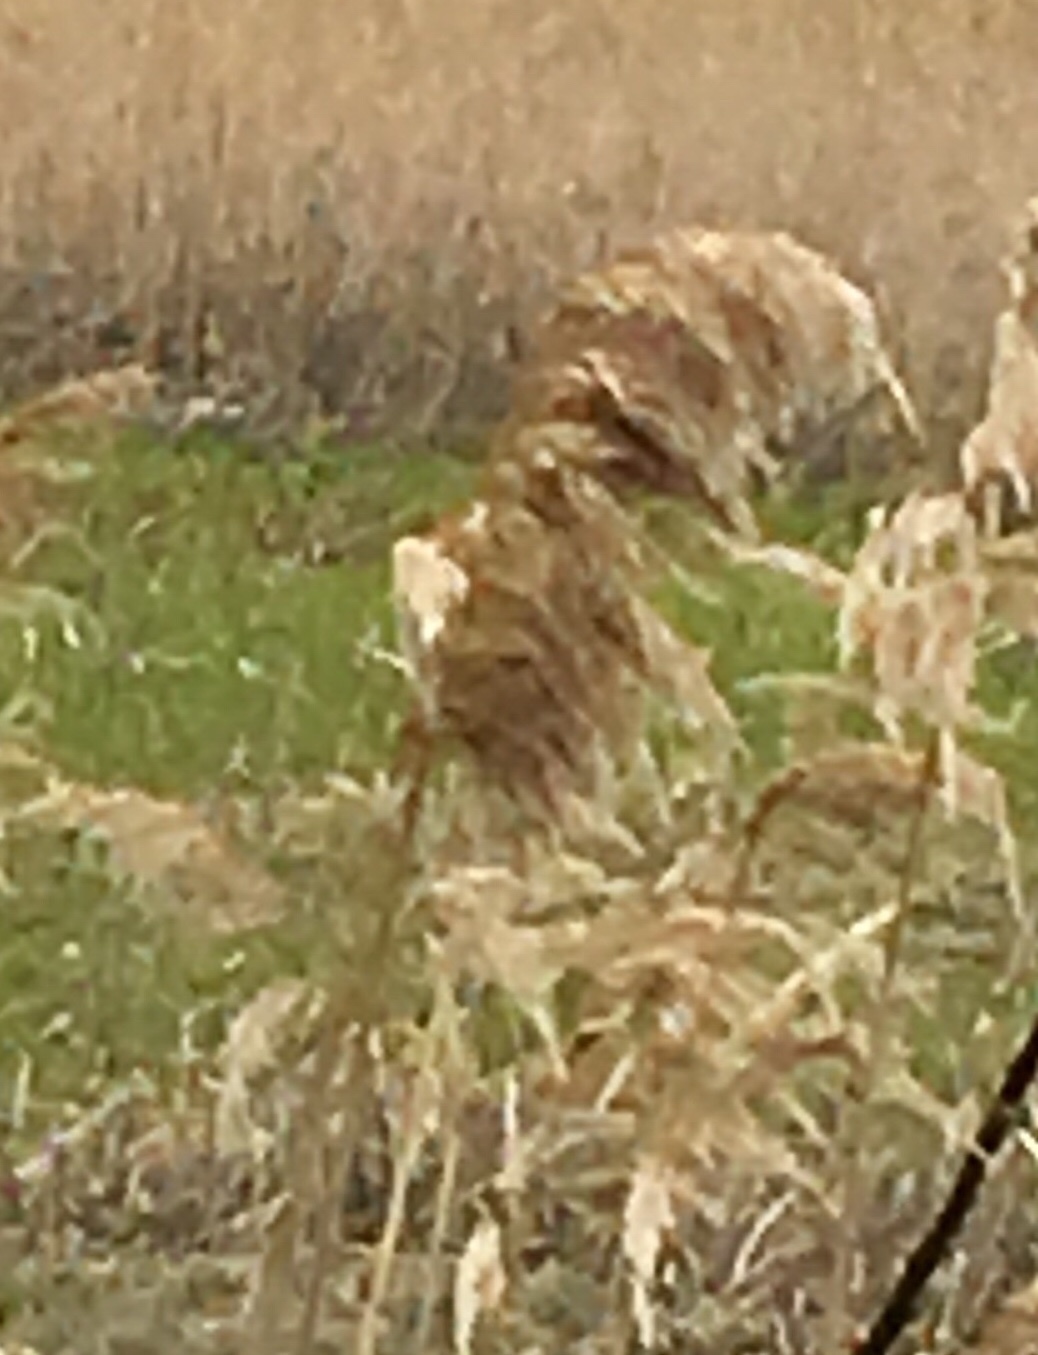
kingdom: Plantae
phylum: Tracheophyta
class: Liliopsida
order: Poales
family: Poaceae
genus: Phragmites
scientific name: Phragmites australis
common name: Common reed
